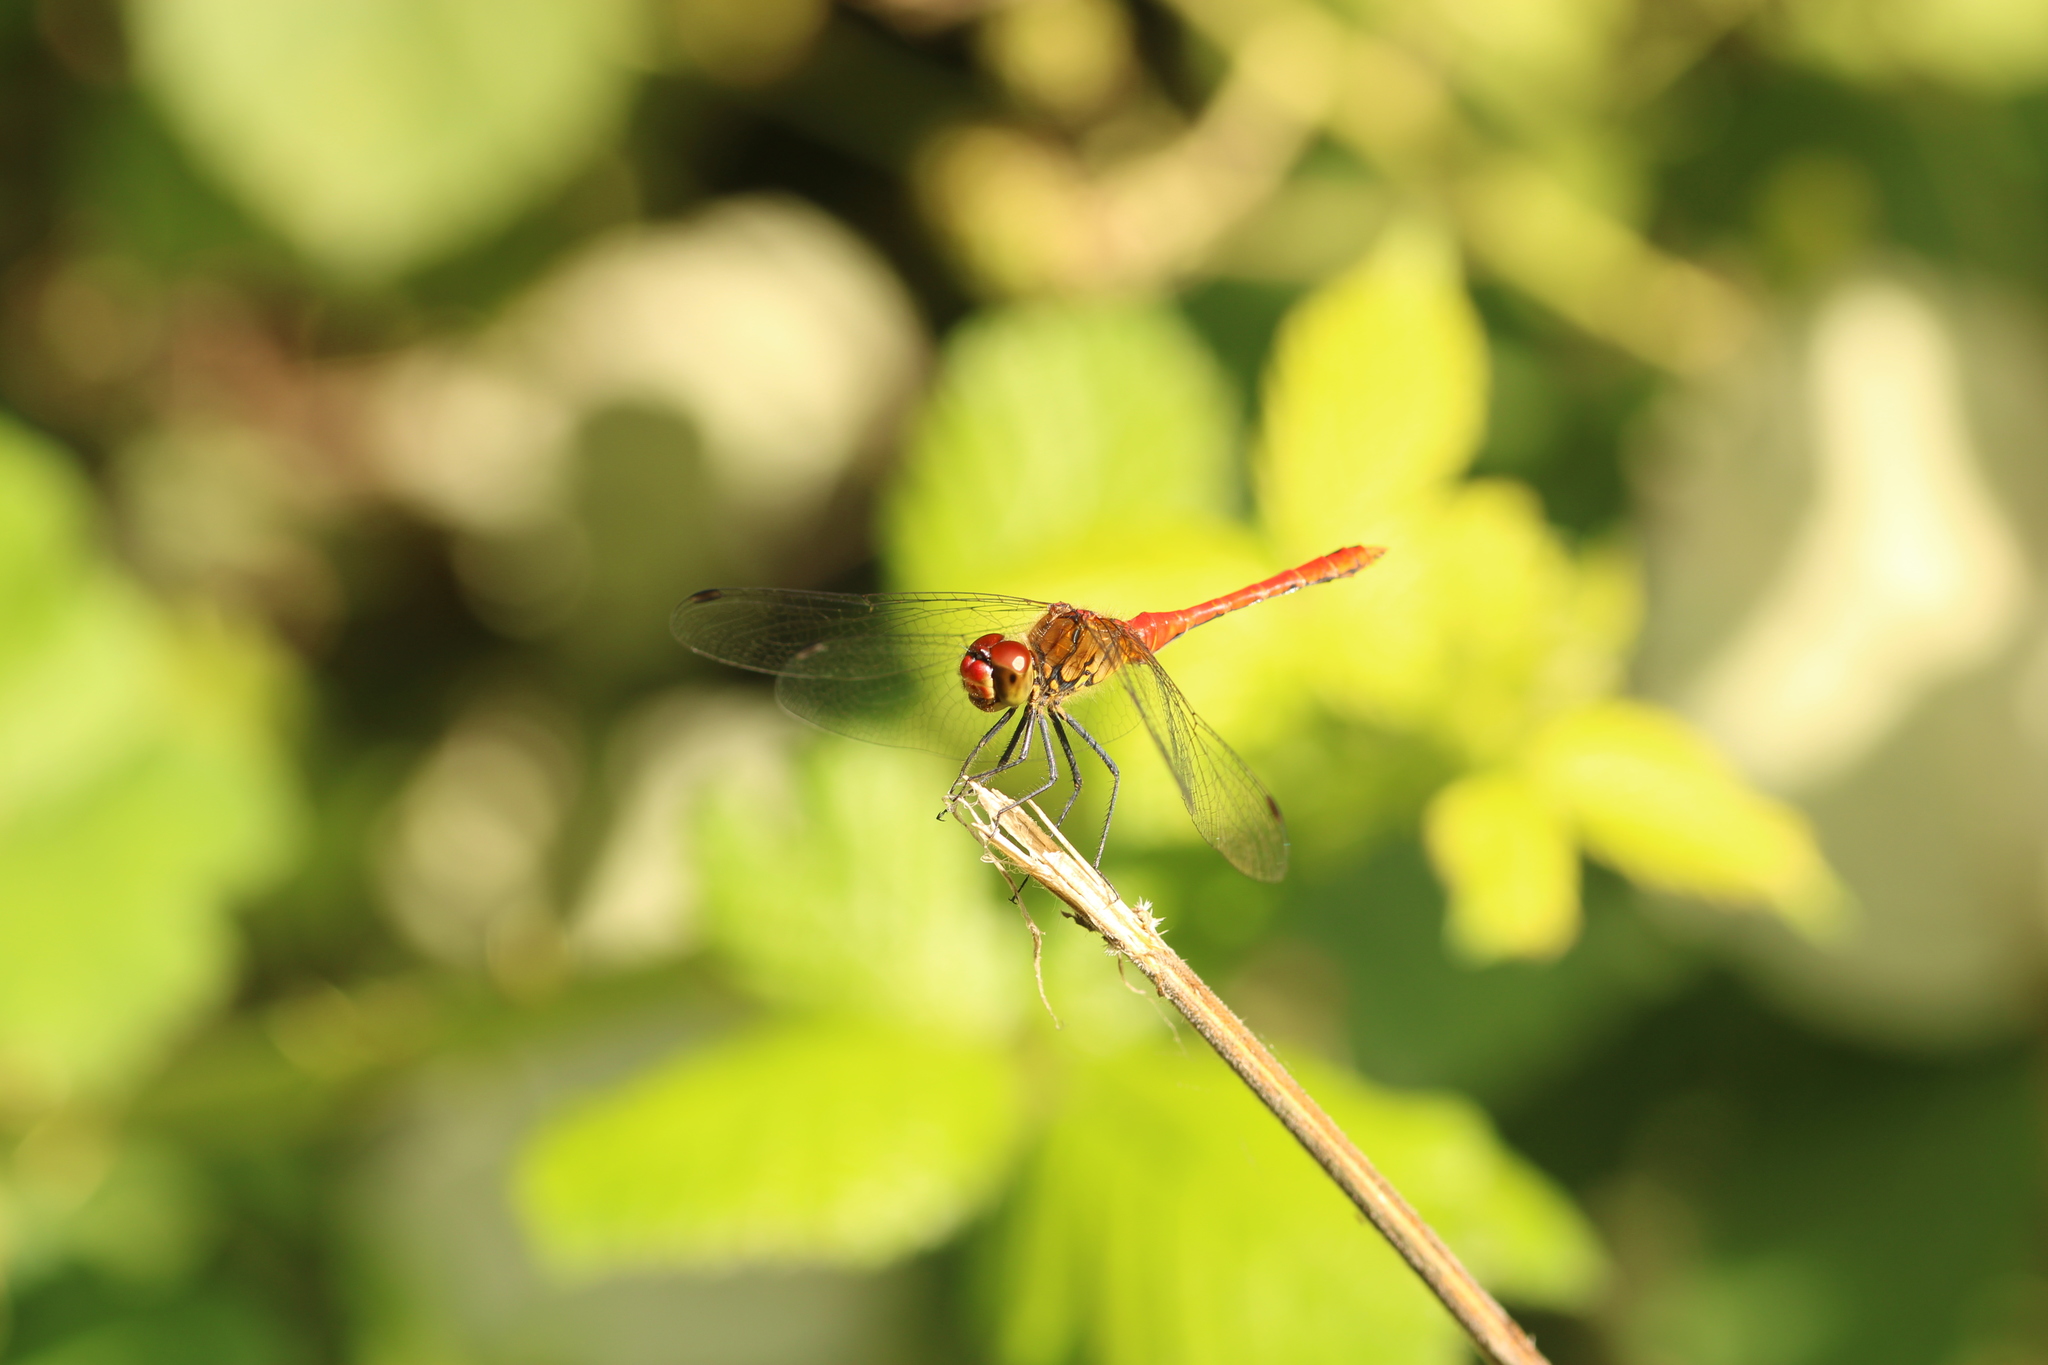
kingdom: Animalia
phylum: Arthropoda
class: Insecta
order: Odonata
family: Libellulidae
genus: Sympetrum
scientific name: Sympetrum sanguineum
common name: Ruddy darter
